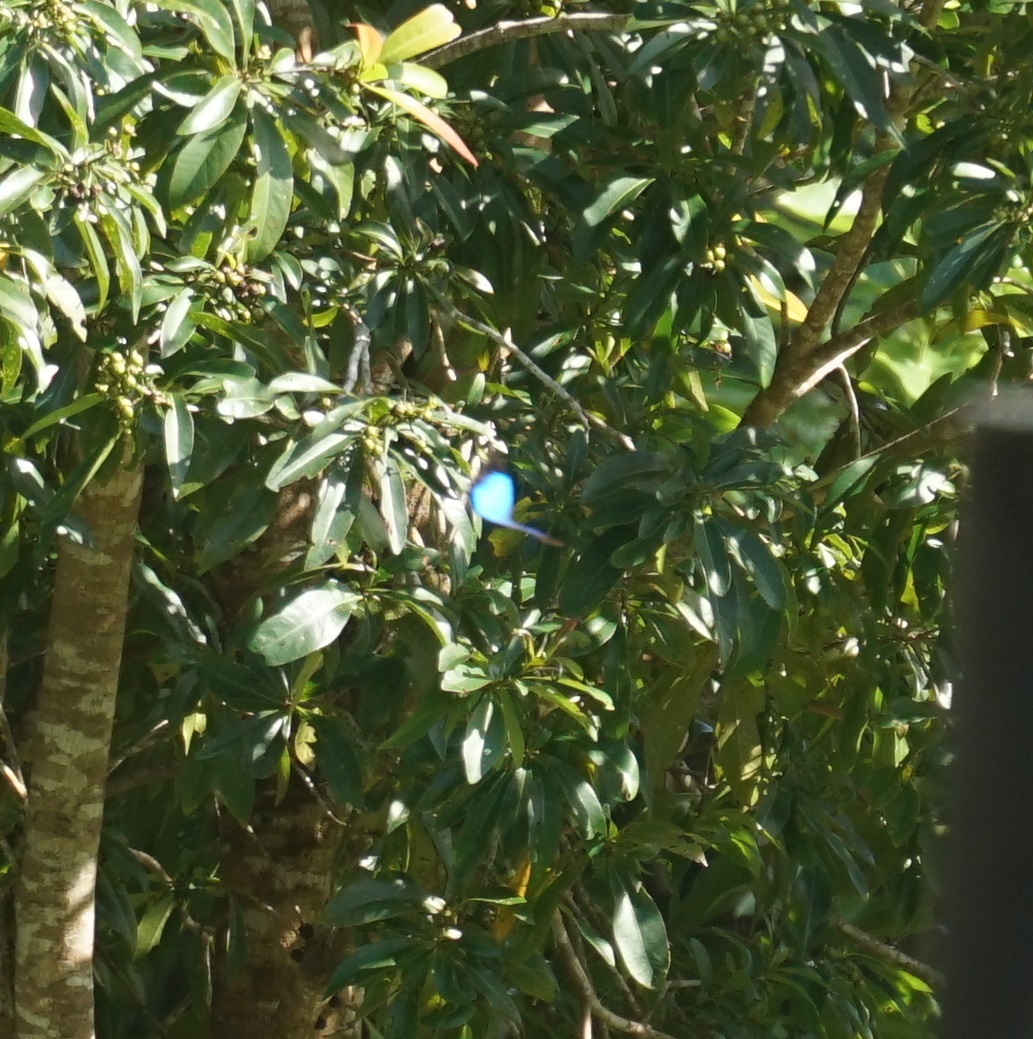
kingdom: Animalia
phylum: Arthropoda
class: Insecta
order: Lepidoptera
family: Papilionidae
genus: Papilio
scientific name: Papilio ulysses
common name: Blue emperor
